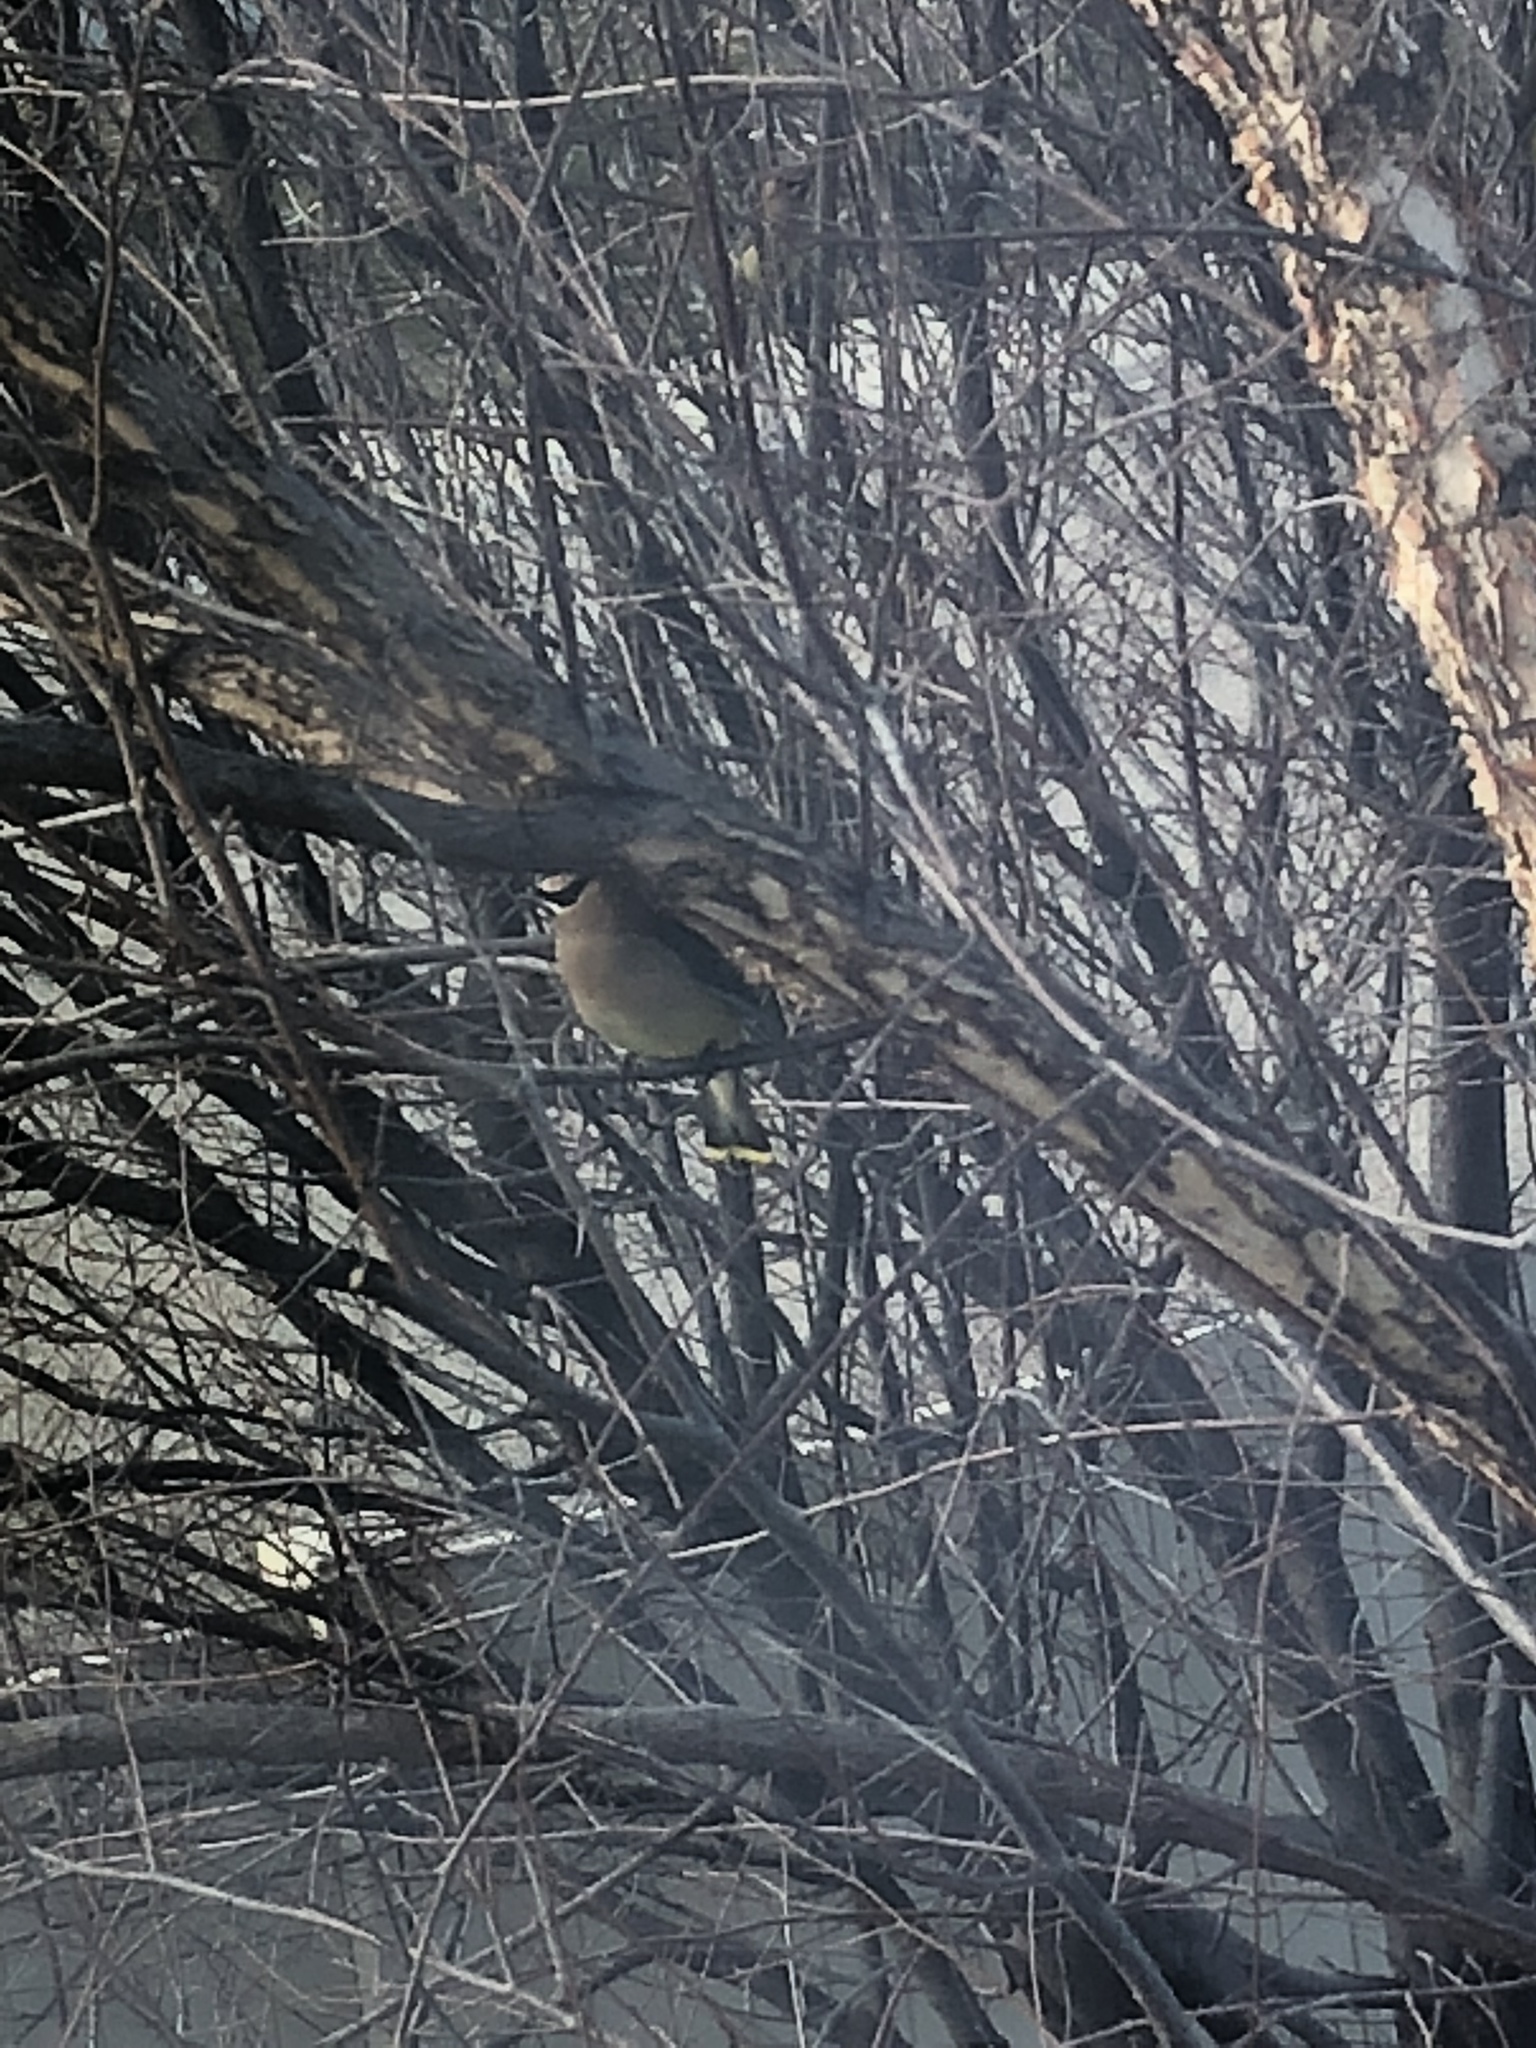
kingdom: Animalia
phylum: Chordata
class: Aves
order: Passeriformes
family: Bombycillidae
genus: Bombycilla
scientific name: Bombycilla cedrorum
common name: Cedar waxwing
